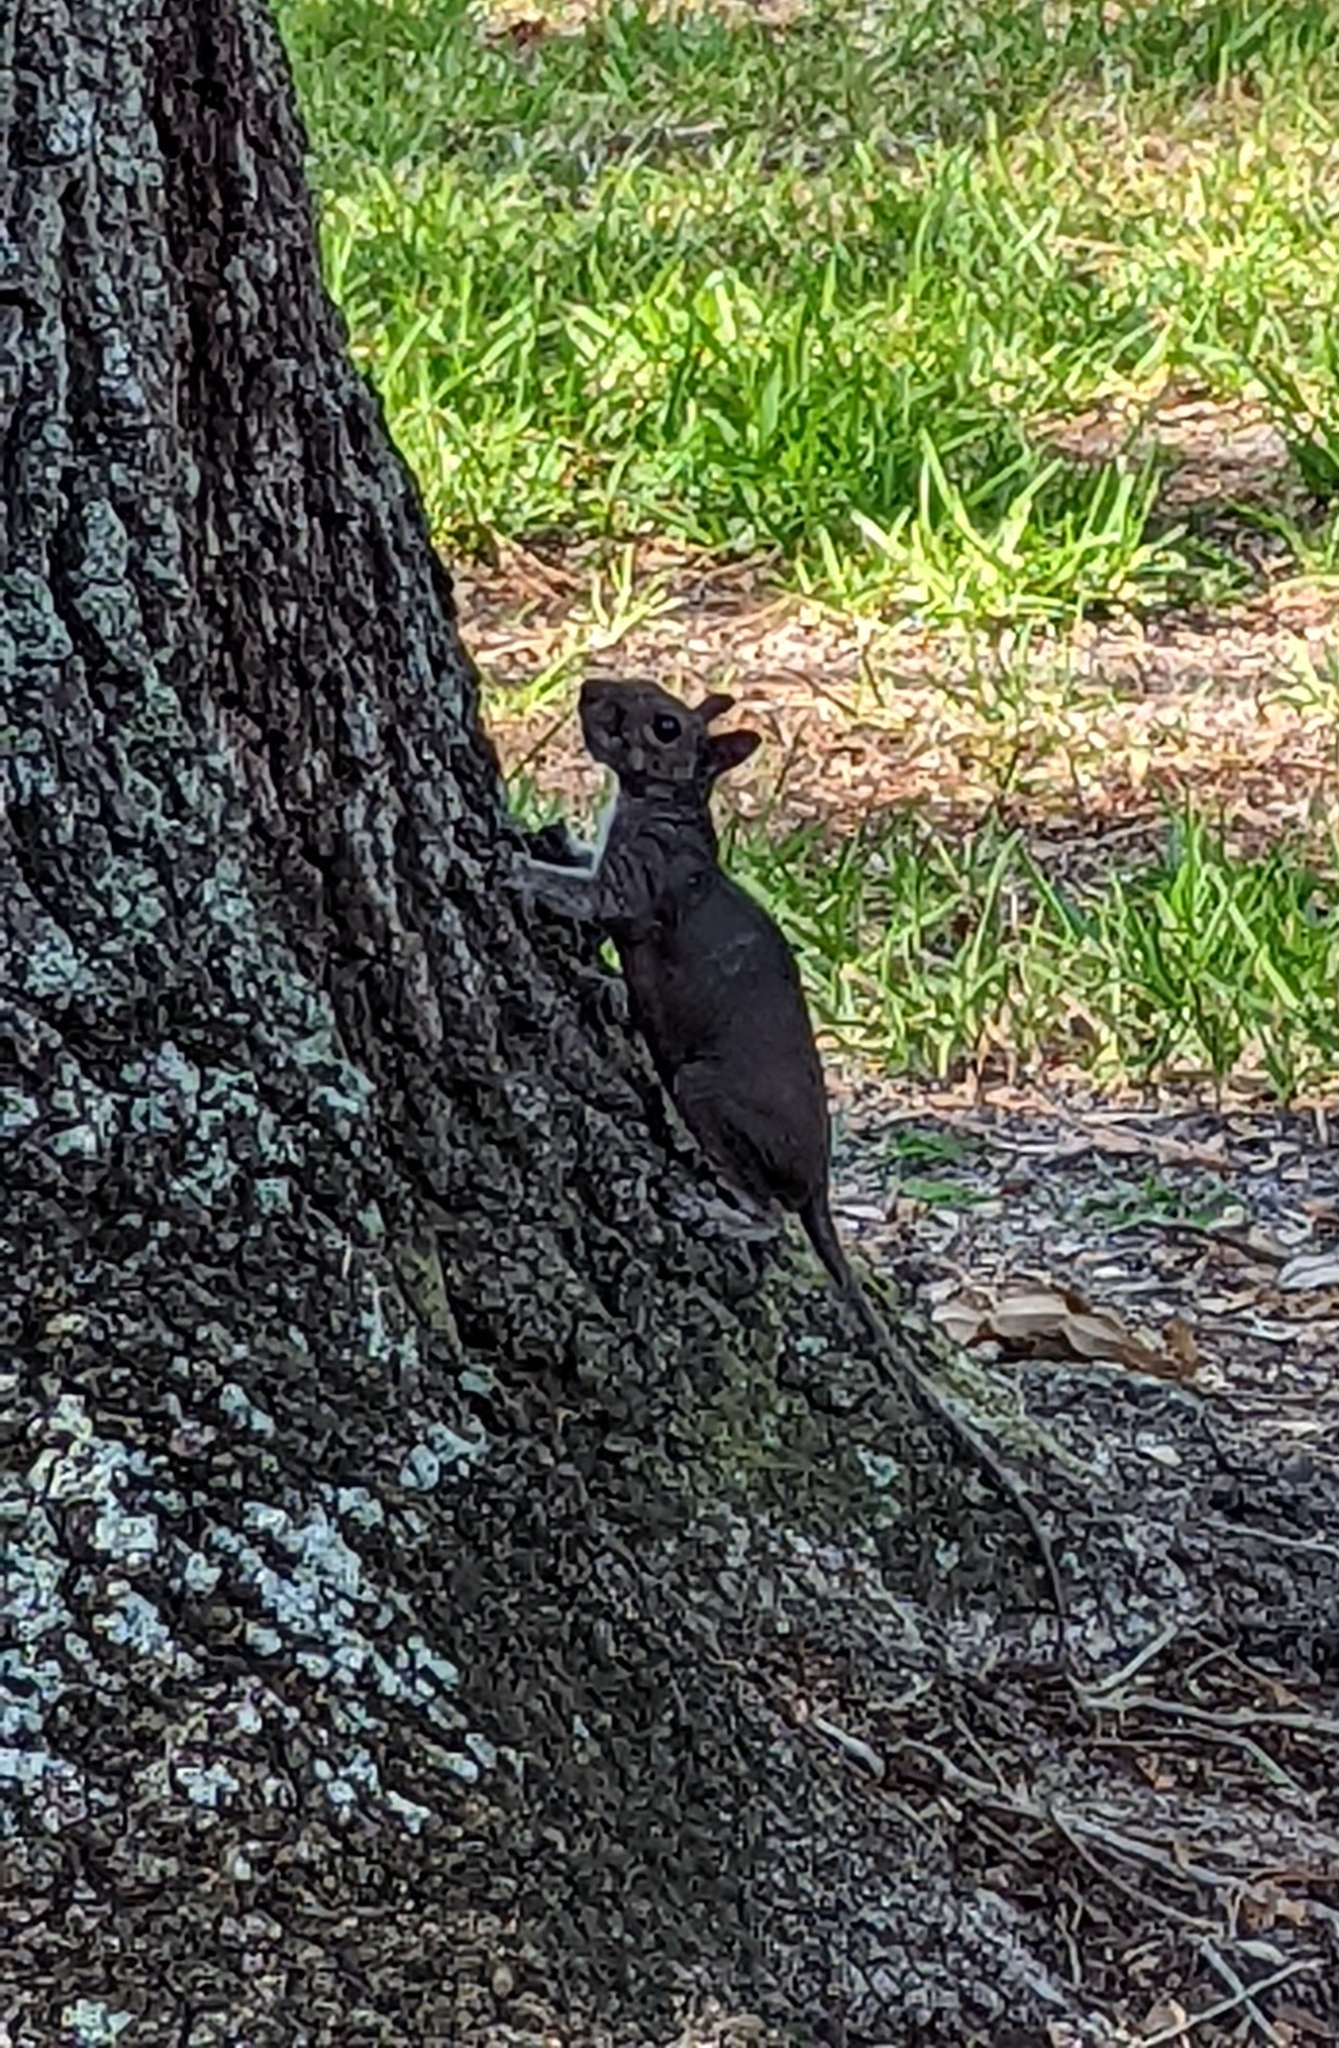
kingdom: Animalia
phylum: Chordata
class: Mammalia
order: Rodentia
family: Sciuridae
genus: Sciurus
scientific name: Sciurus carolinensis
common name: Eastern gray squirrel
